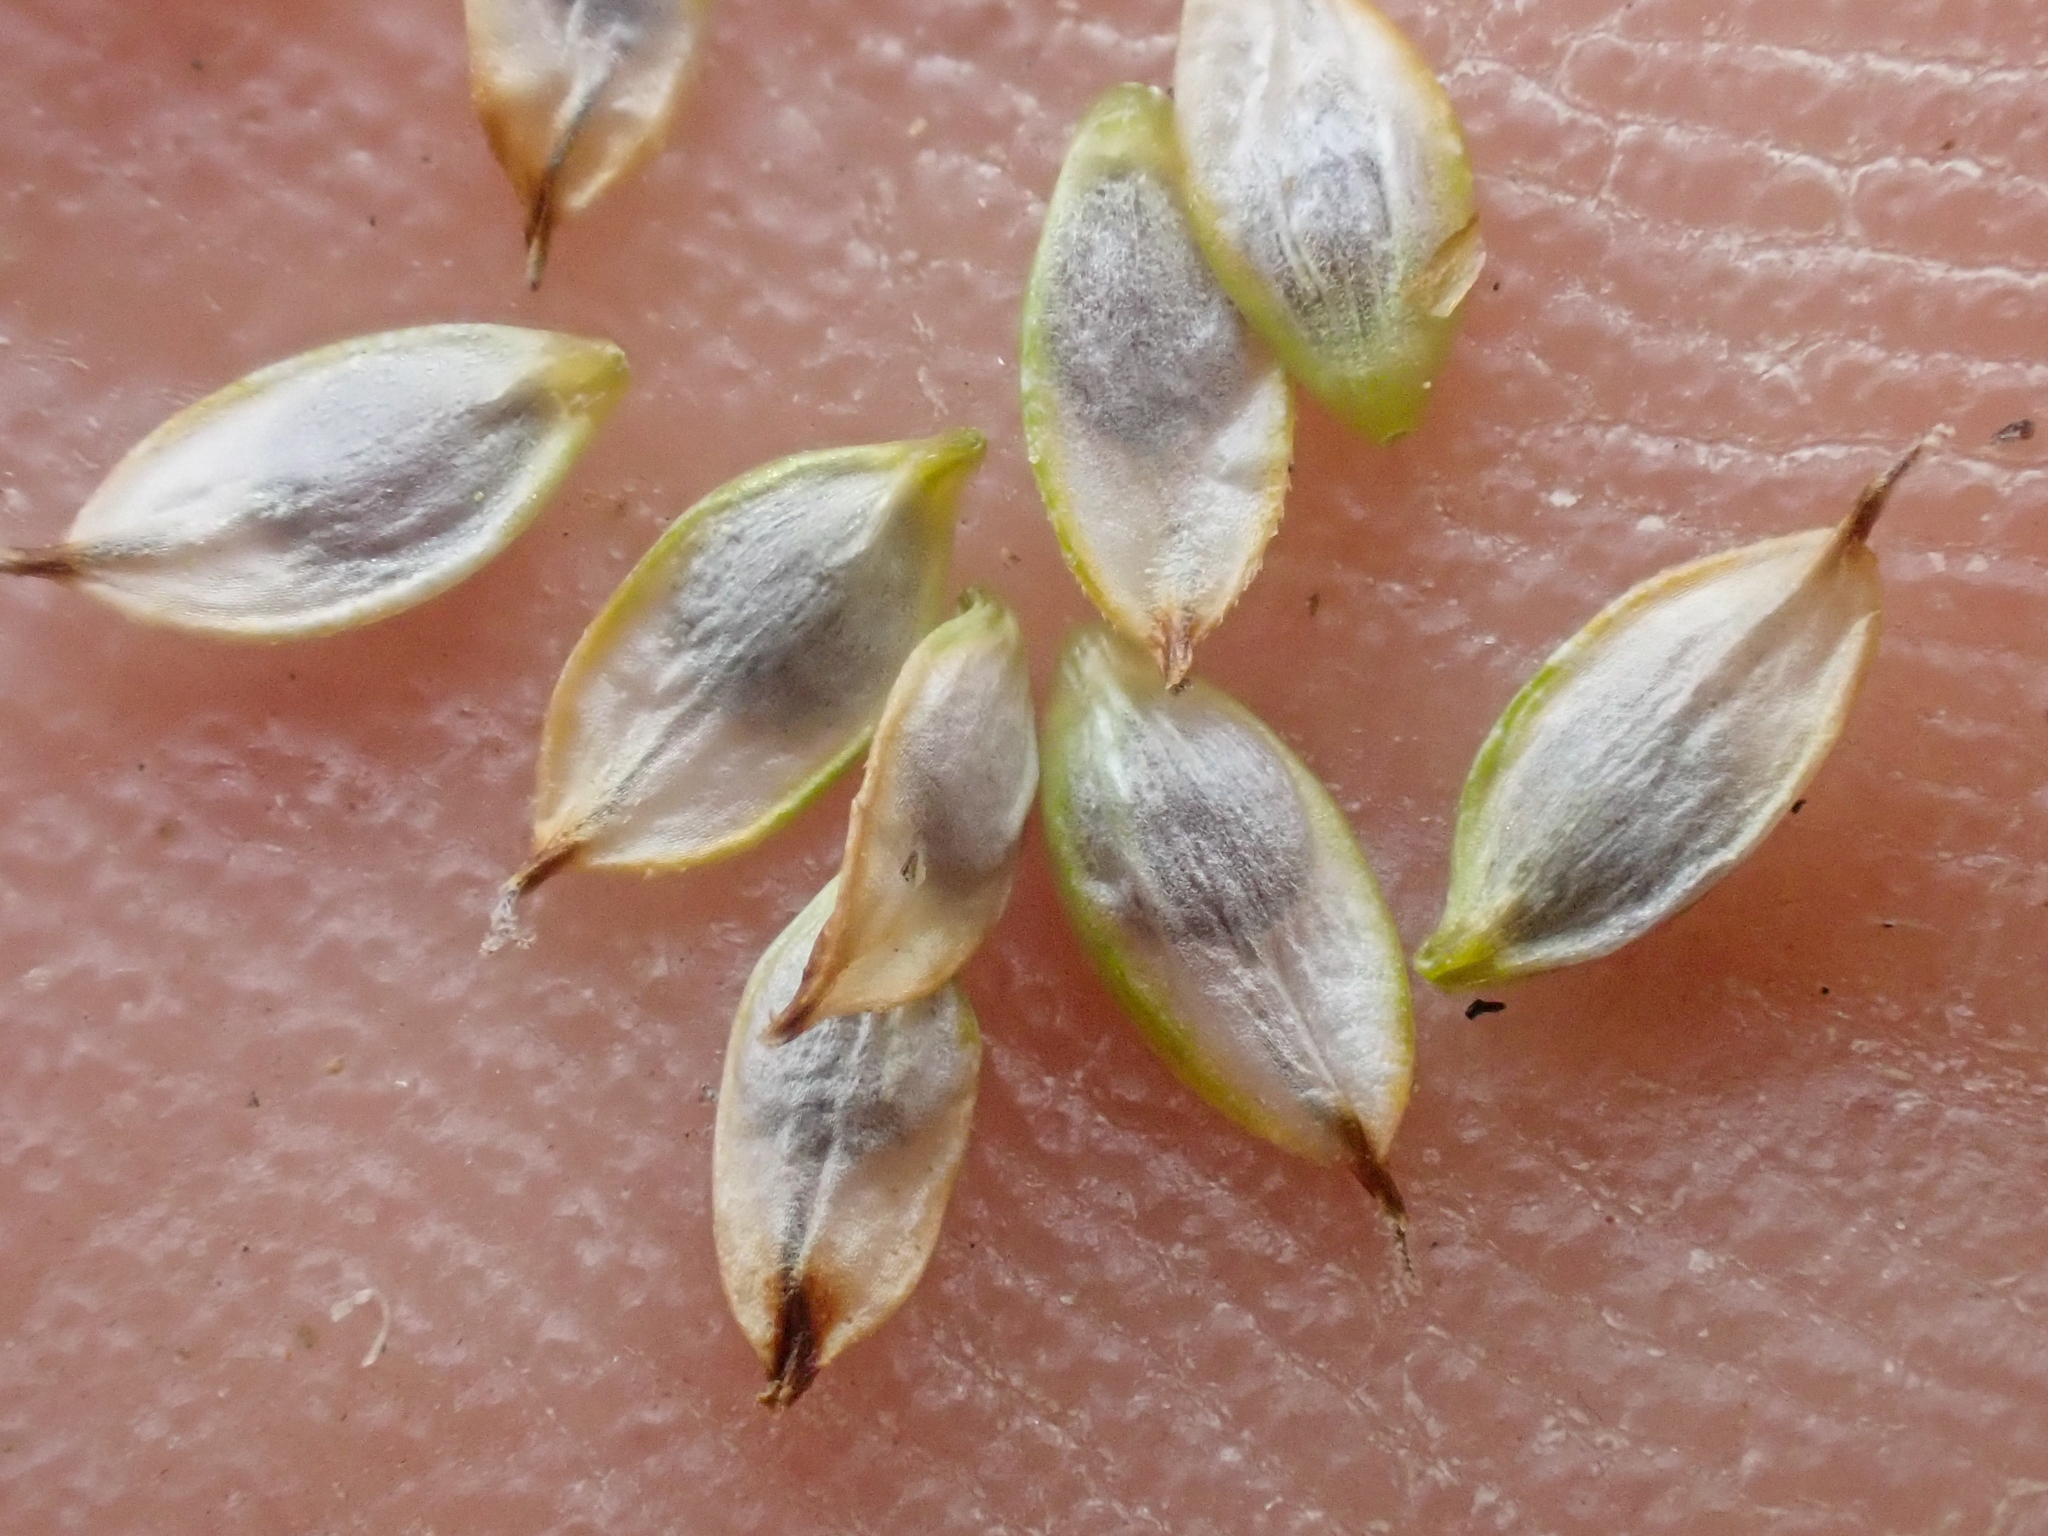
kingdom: Plantae
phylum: Tracheophyta
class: Liliopsida
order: Poales
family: Cyperaceae
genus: Carex
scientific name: Carex nardina
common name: Nard sedge
